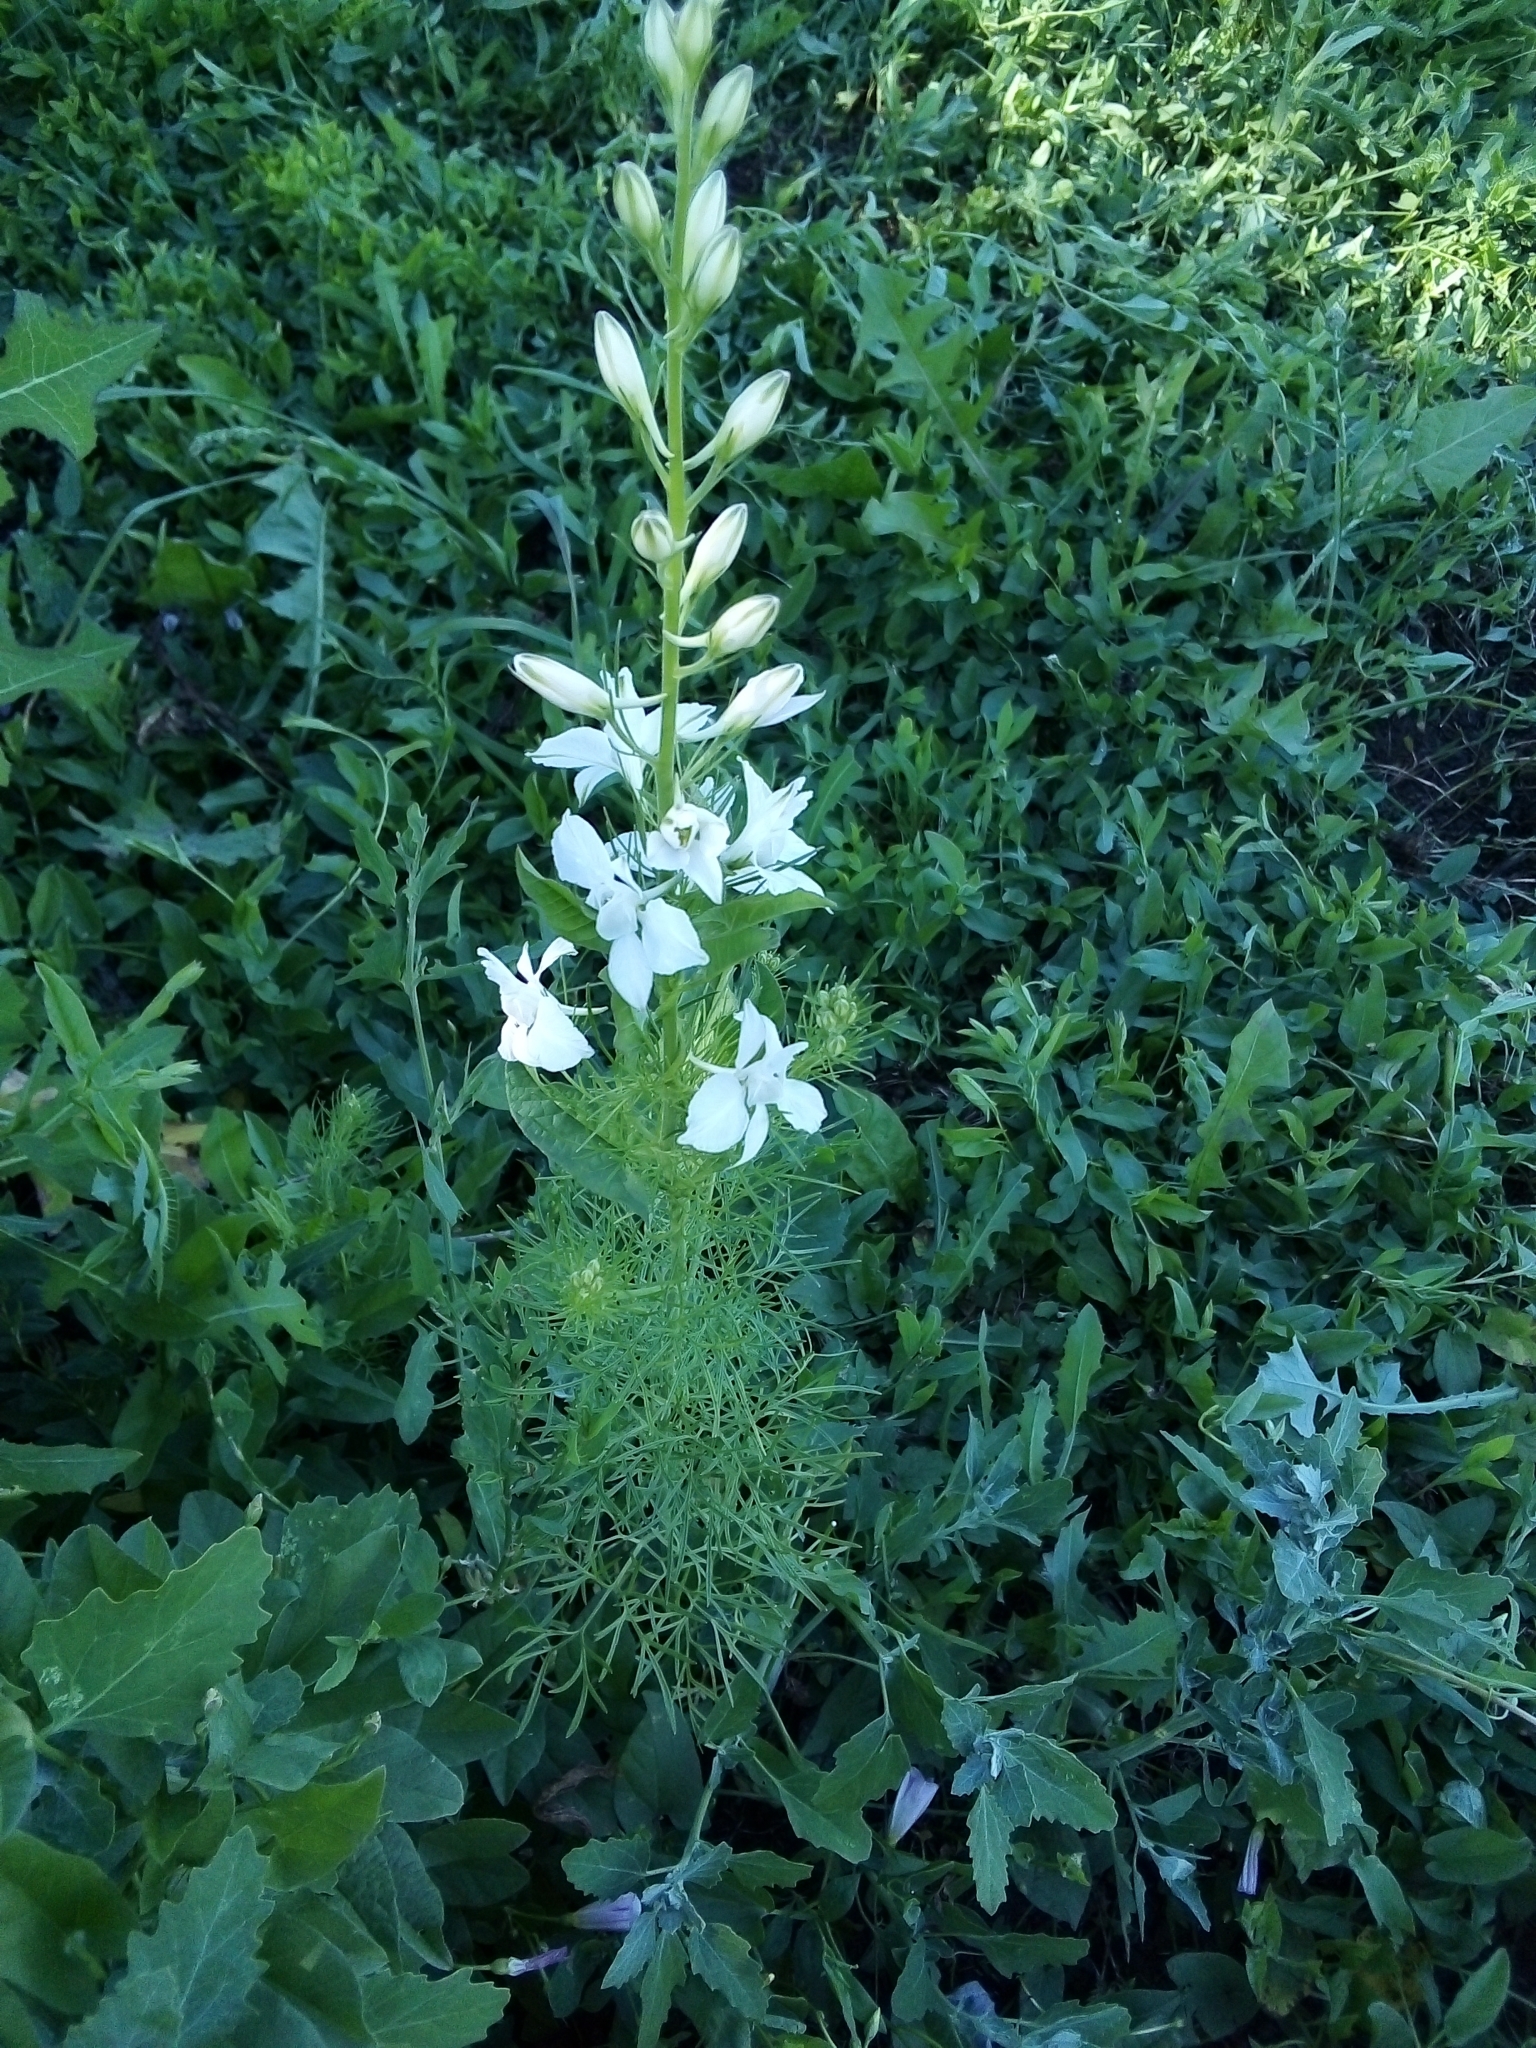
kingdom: Plantae
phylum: Tracheophyta
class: Magnoliopsida
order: Ranunculales
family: Ranunculaceae
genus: Delphinium
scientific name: Delphinium ajacis
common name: Doubtful knight's-spur
